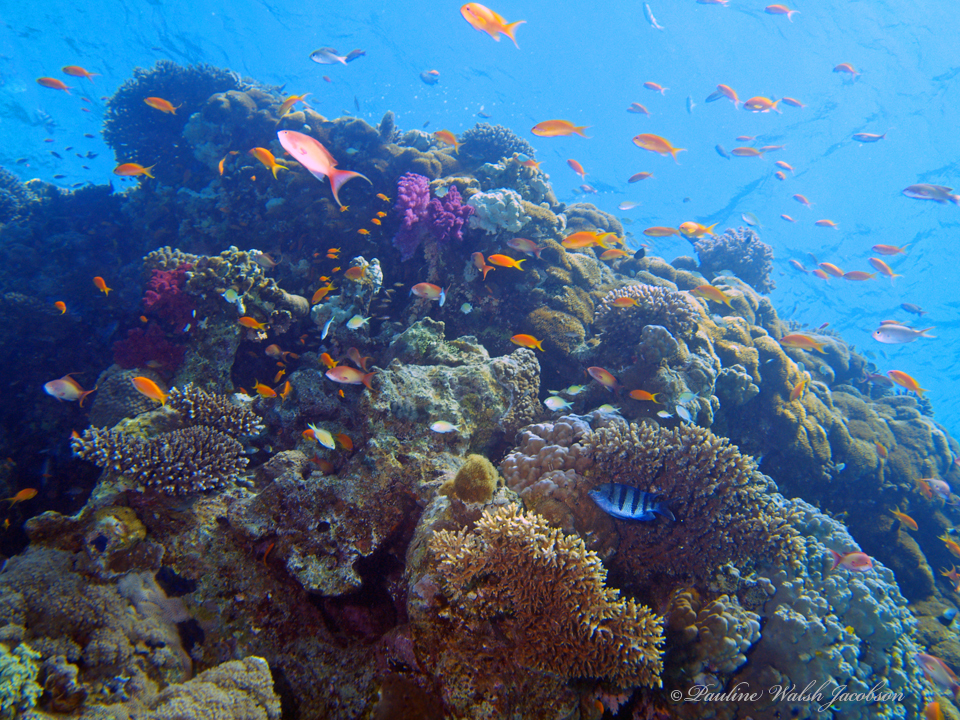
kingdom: Animalia
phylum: Chordata
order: Perciformes
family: Pomacentridae
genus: Abudefduf
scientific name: Abudefduf vaigiensis
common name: Indo-pacific sergeant
